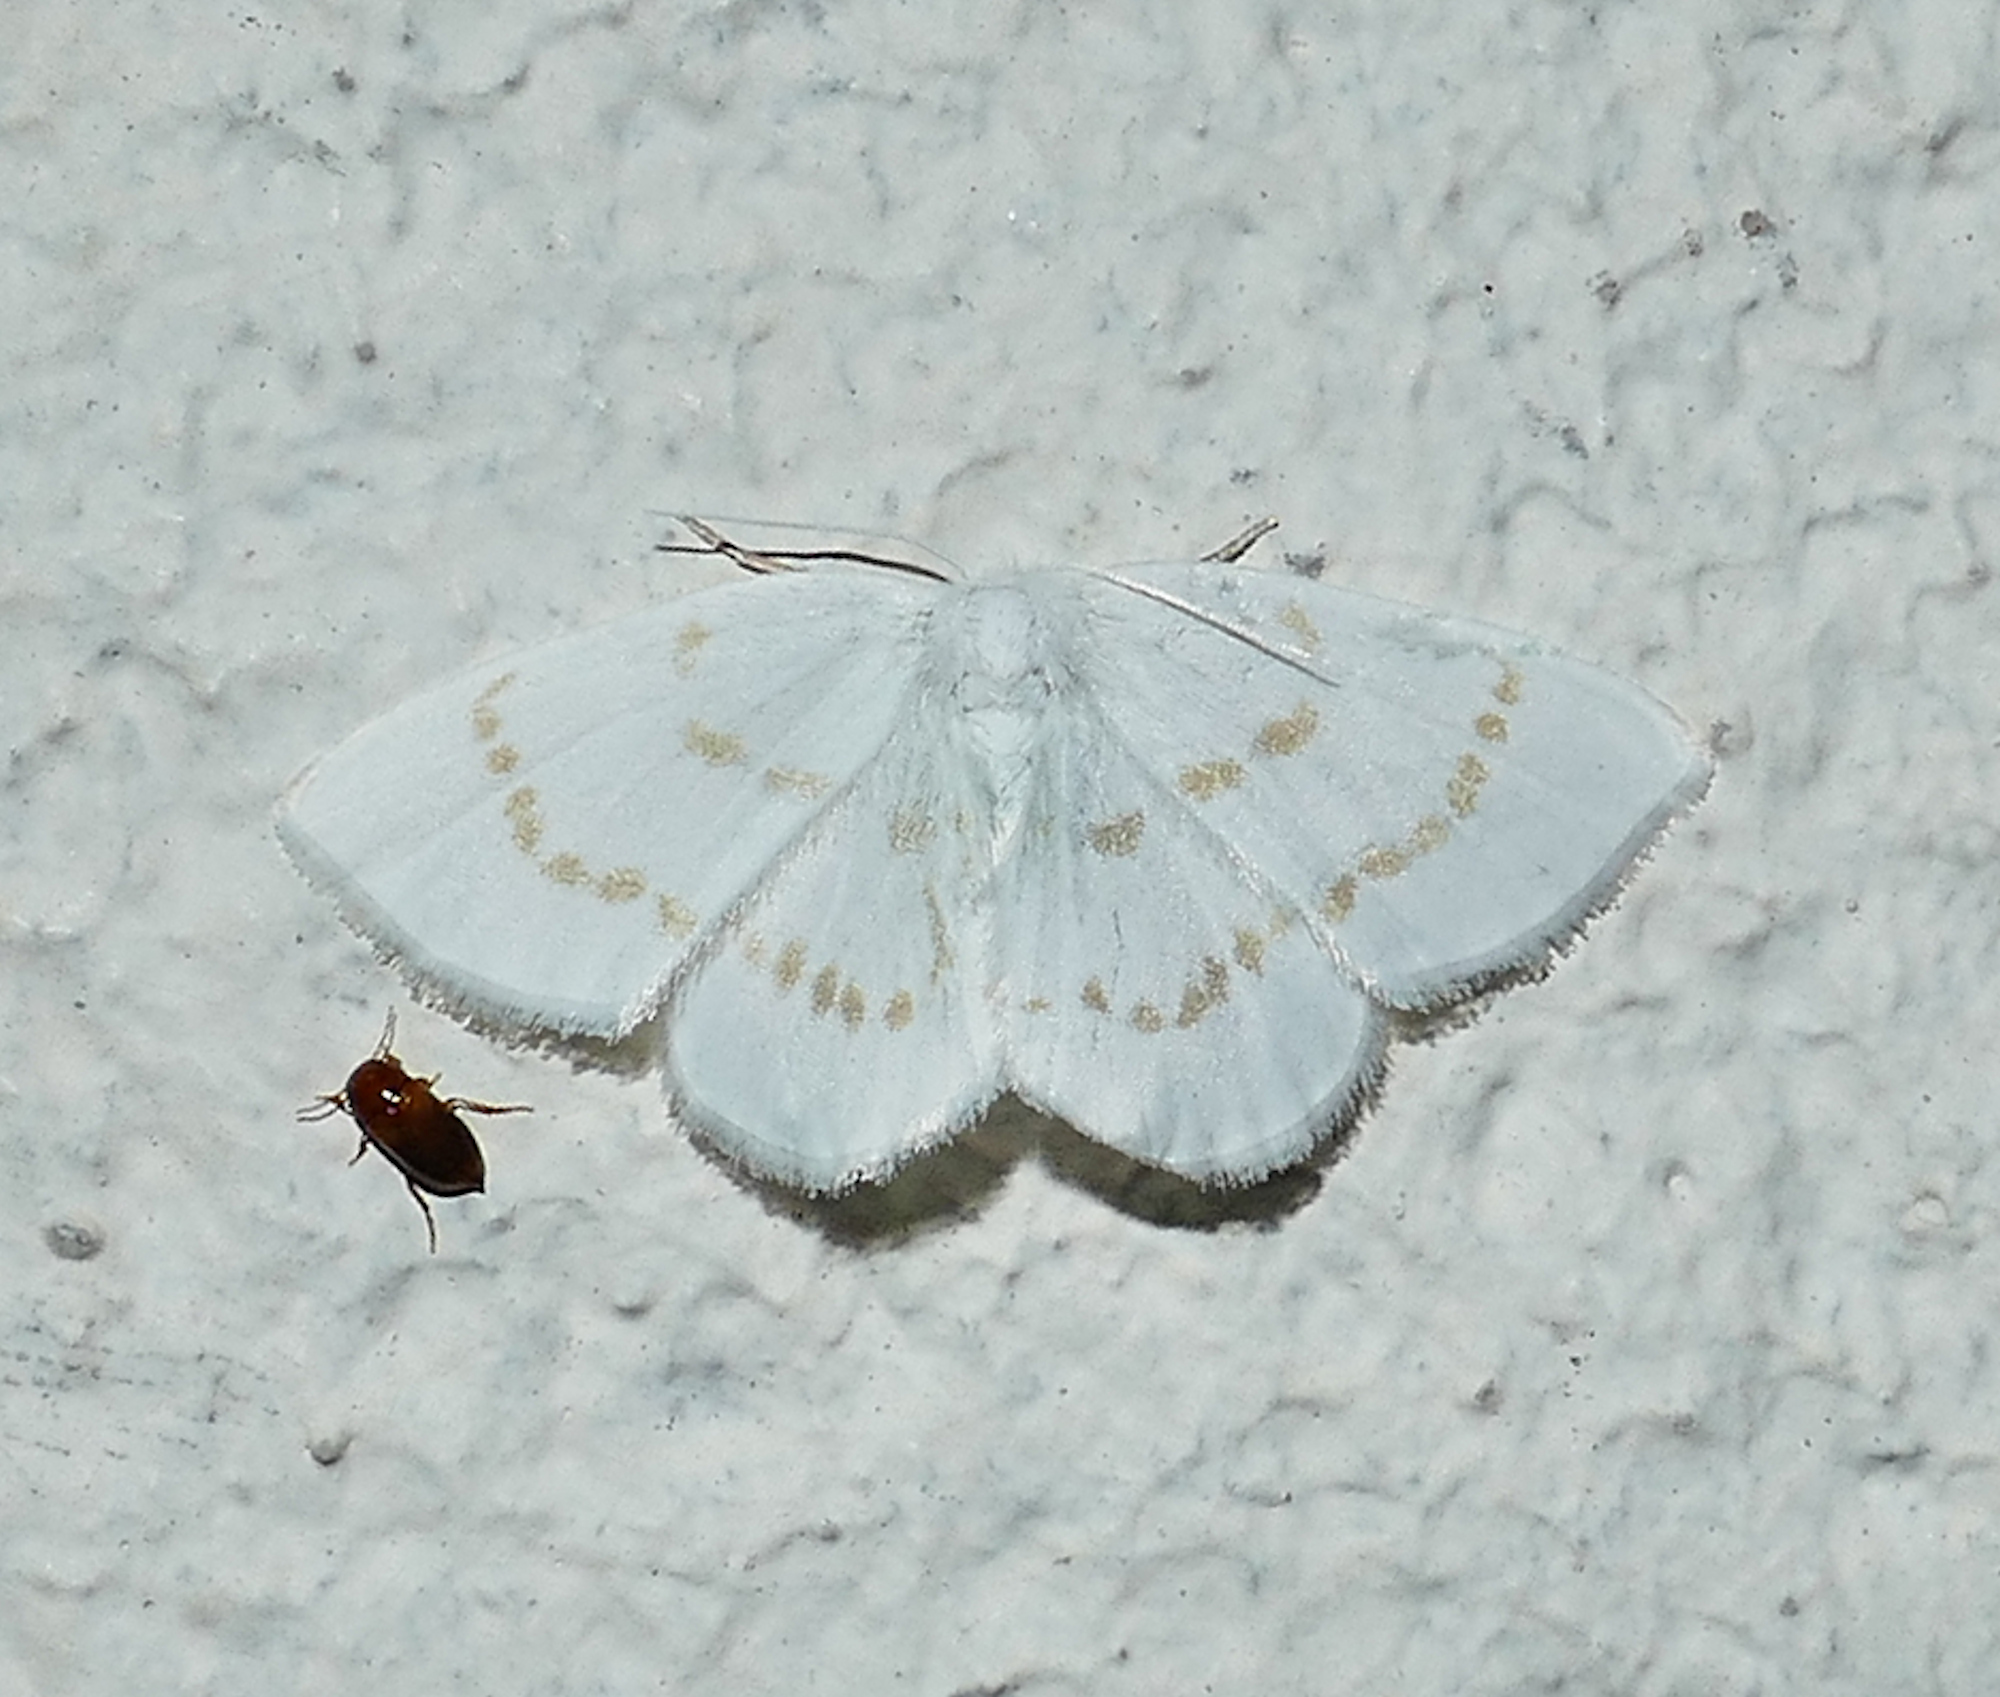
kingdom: Animalia
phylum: Arthropoda
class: Insecta
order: Lepidoptera
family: Drepanidae
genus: Eudeilinia
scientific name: Eudeilinia herminiata
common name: Northern eudeilinea moth
